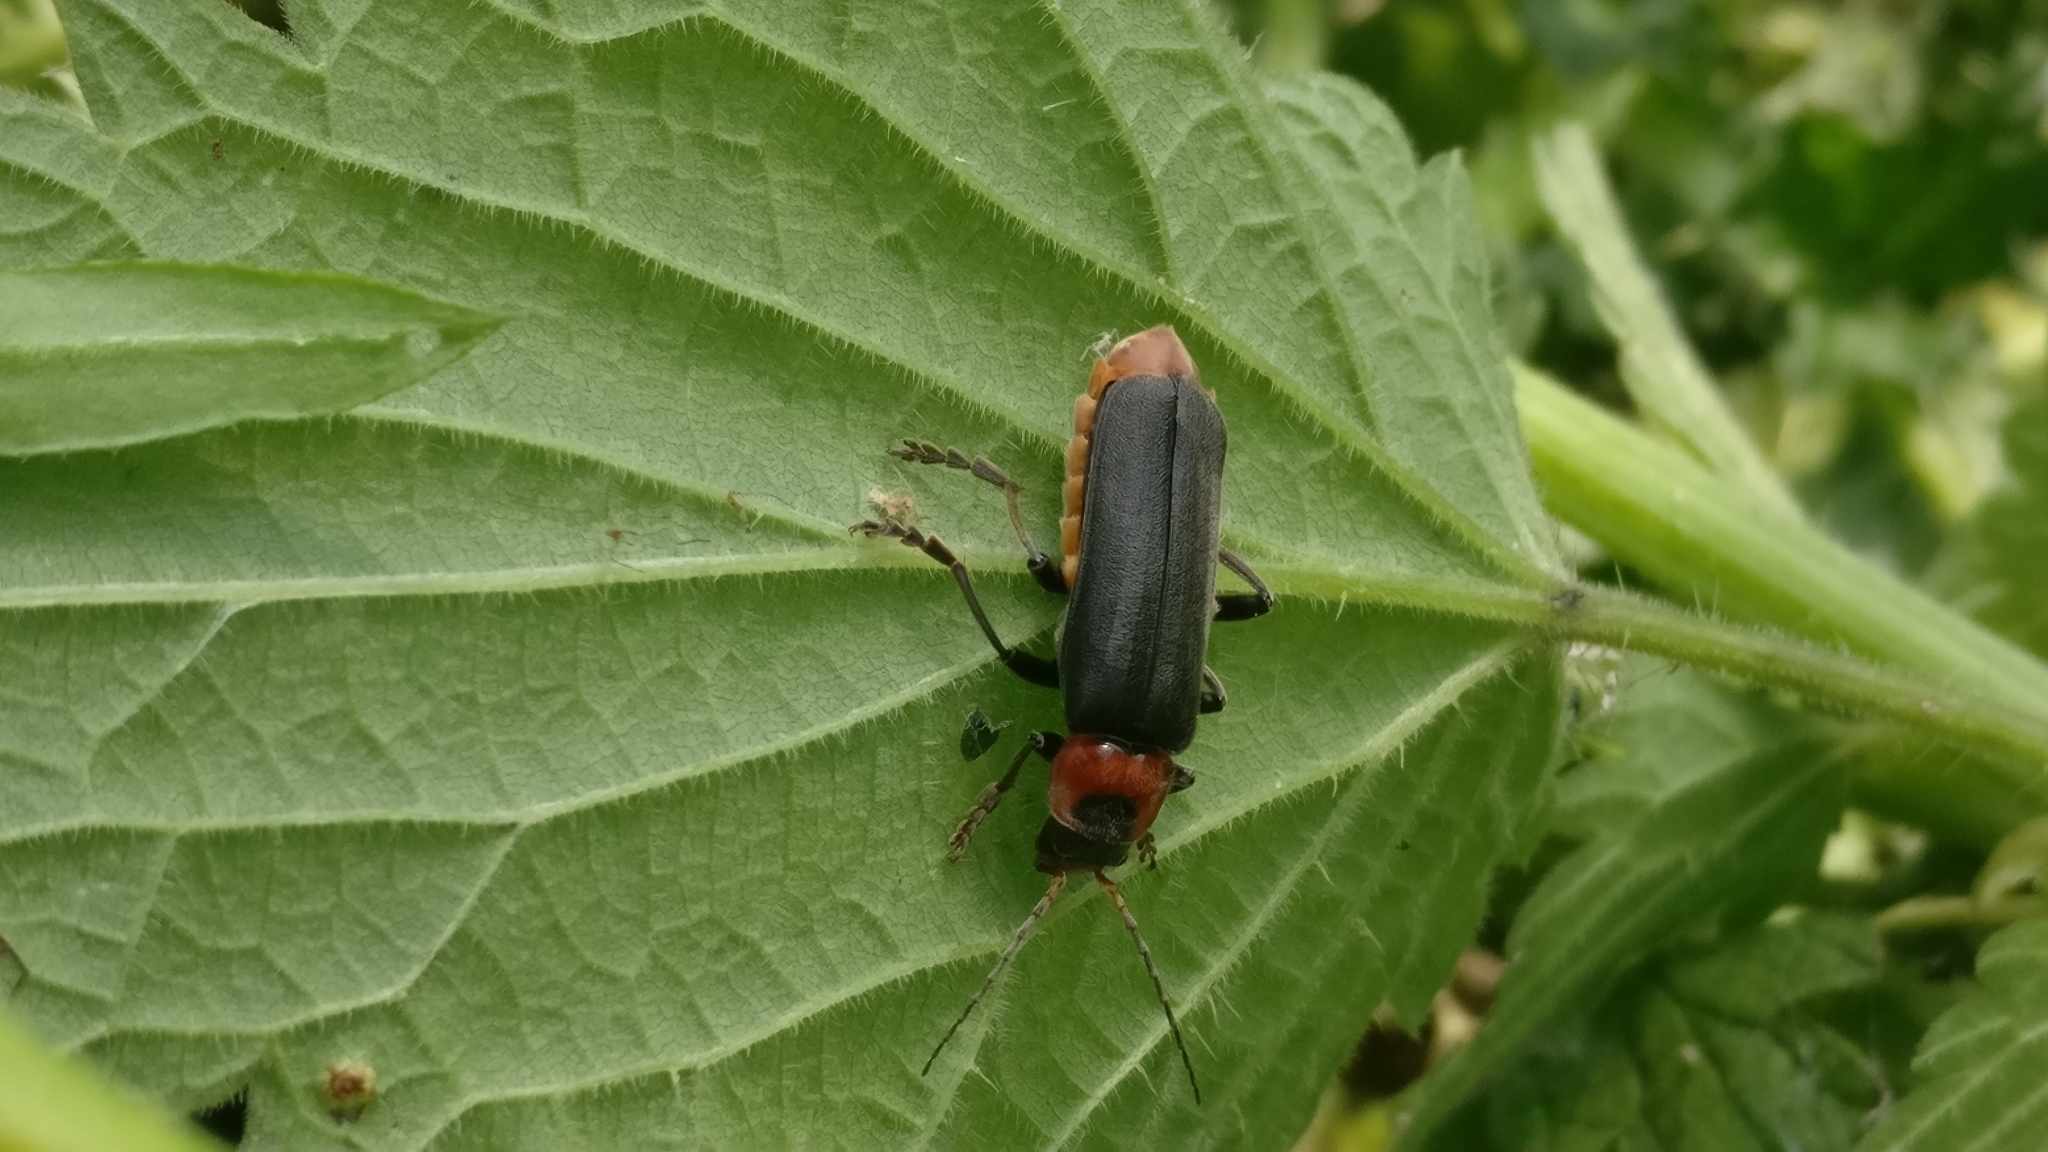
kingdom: Animalia
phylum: Arthropoda
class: Insecta
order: Coleoptera
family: Cantharidae
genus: Cantharis
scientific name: Cantharis fusca
